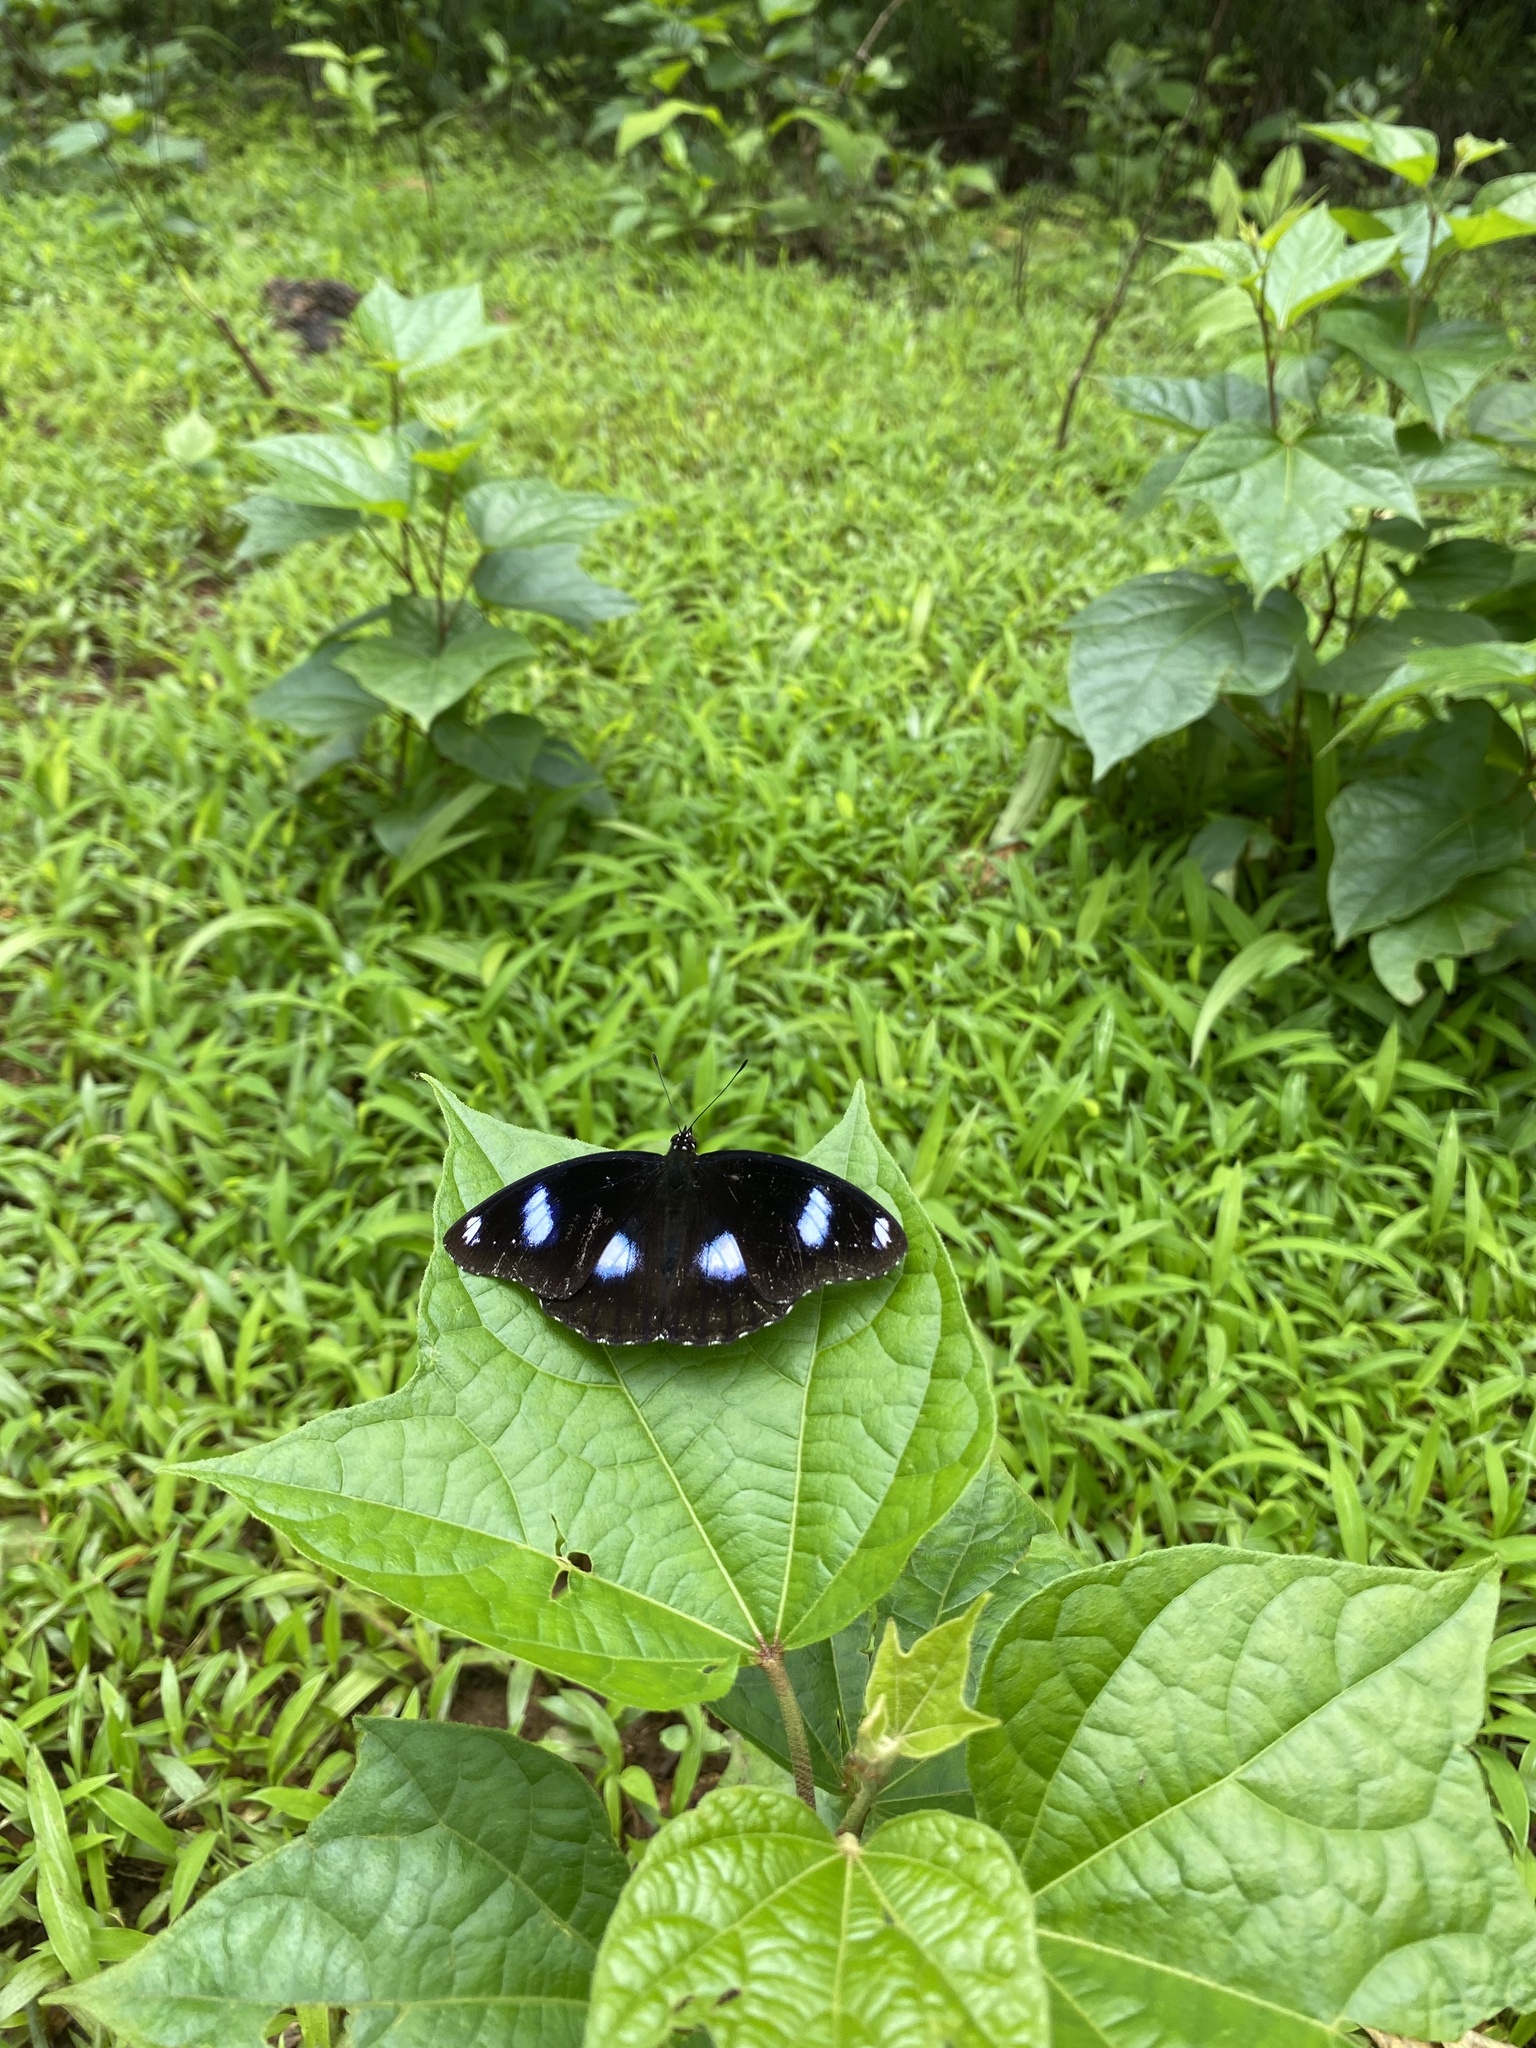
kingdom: Animalia
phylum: Arthropoda
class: Insecta
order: Lepidoptera
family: Nymphalidae
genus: Hypolimnas
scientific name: Hypolimnas bolina
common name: Great eggfly
